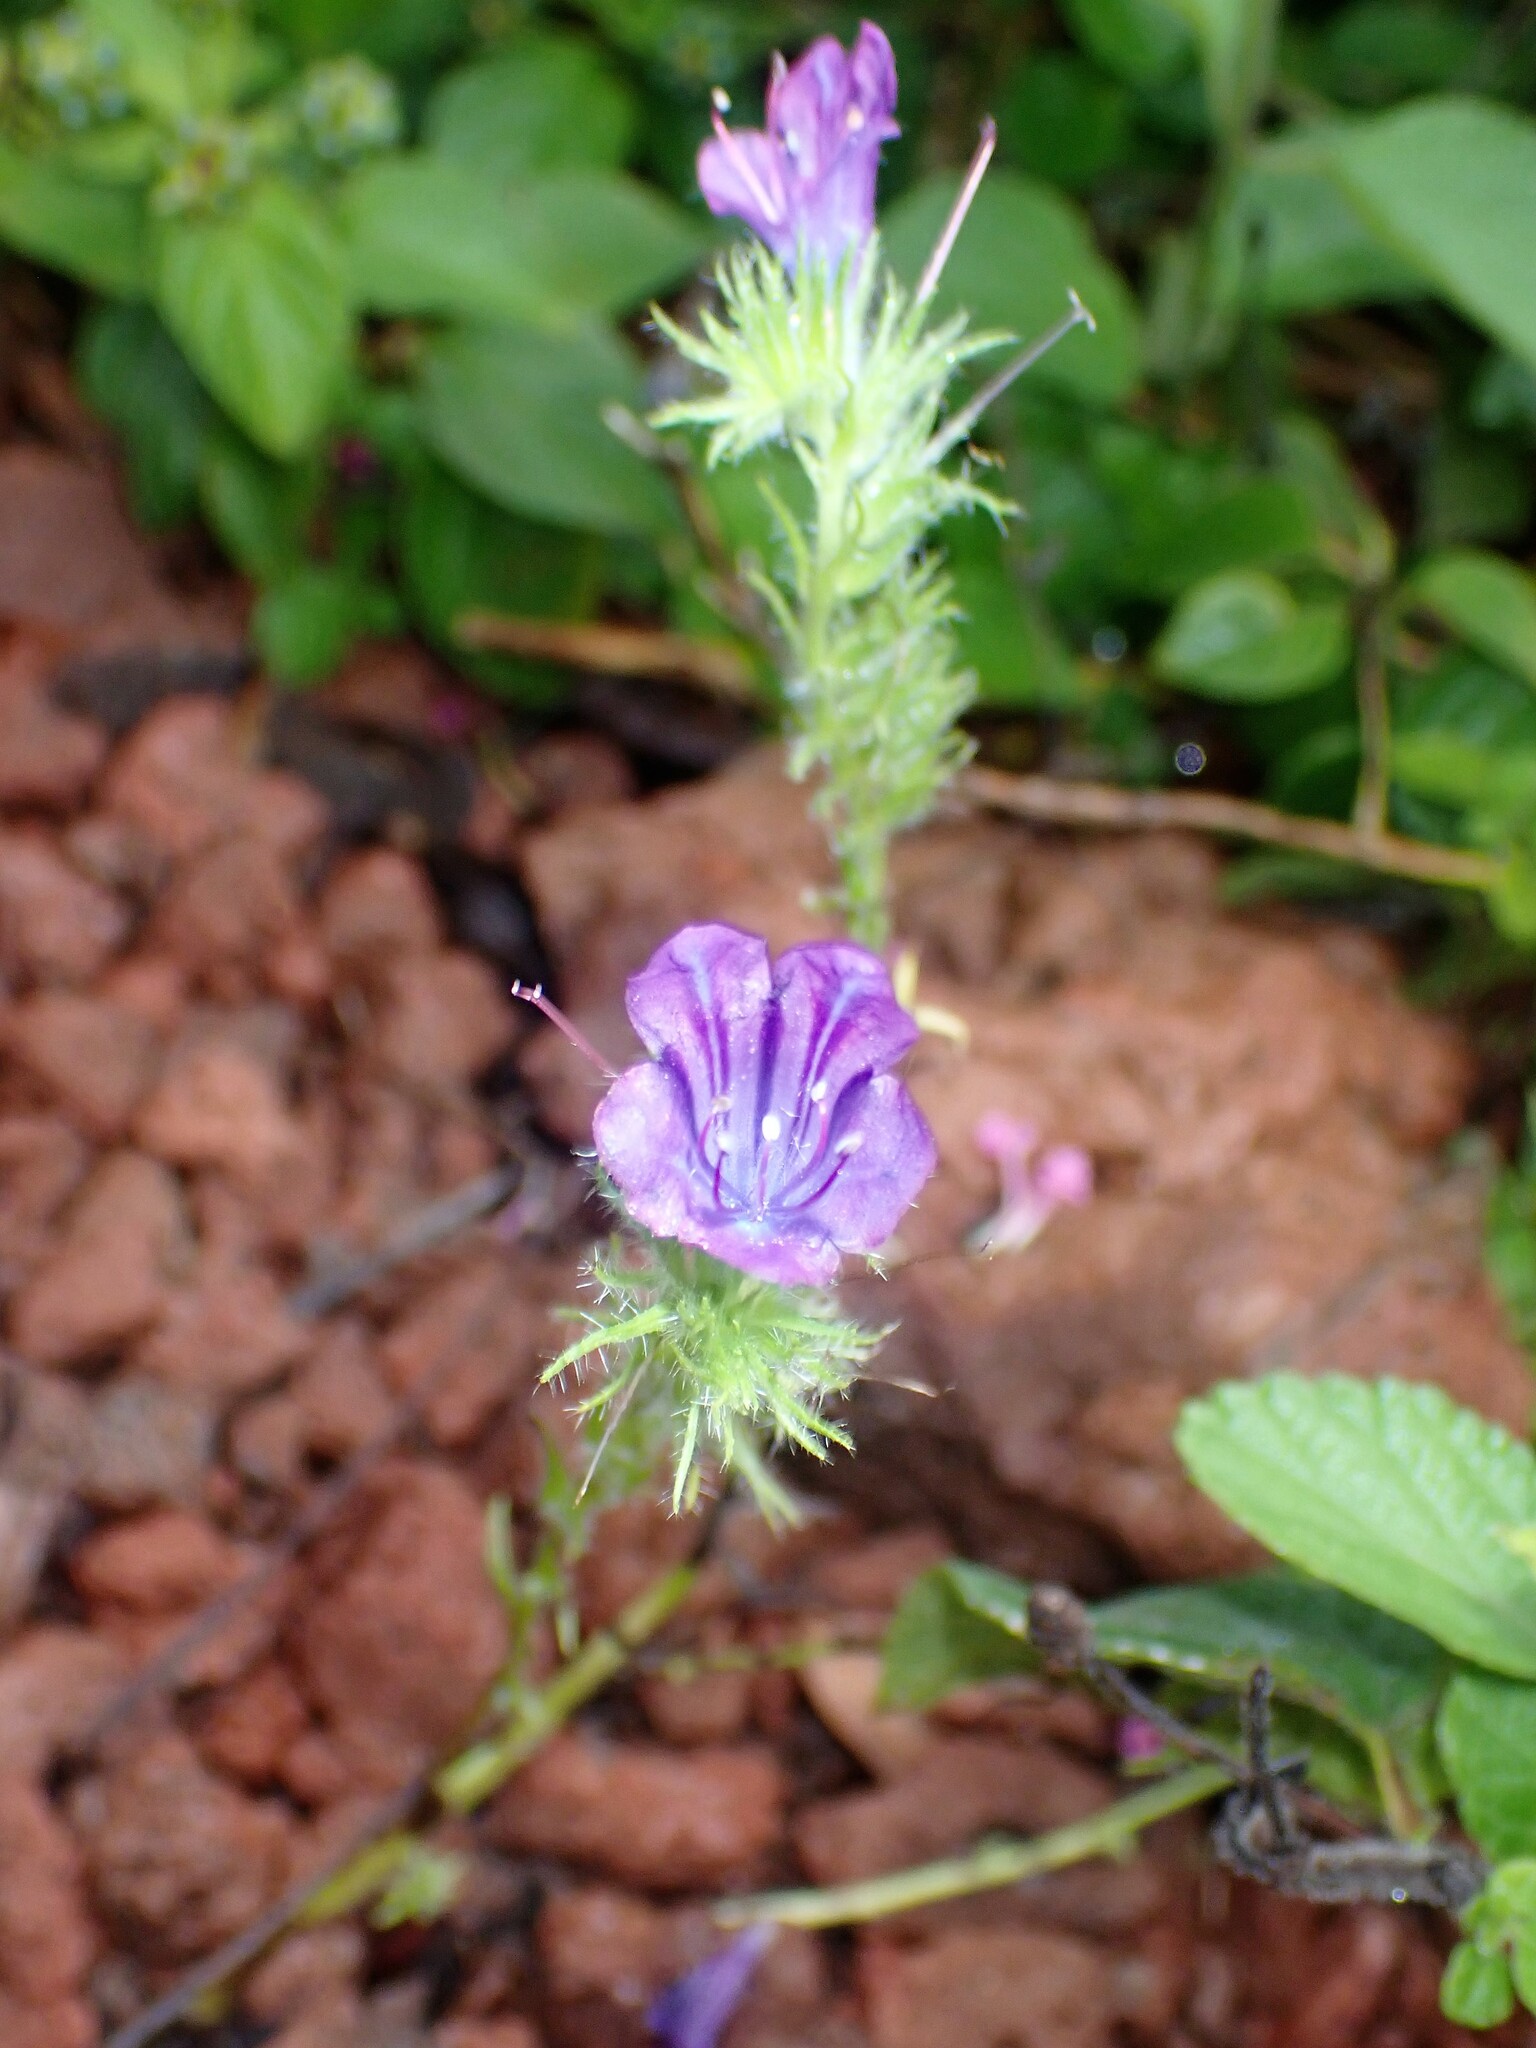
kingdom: Plantae
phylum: Tracheophyta
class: Magnoliopsida
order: Boraginales
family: Boraginaceae
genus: Echium
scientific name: Echium plantagineum
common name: Purple viper's-bugloss
